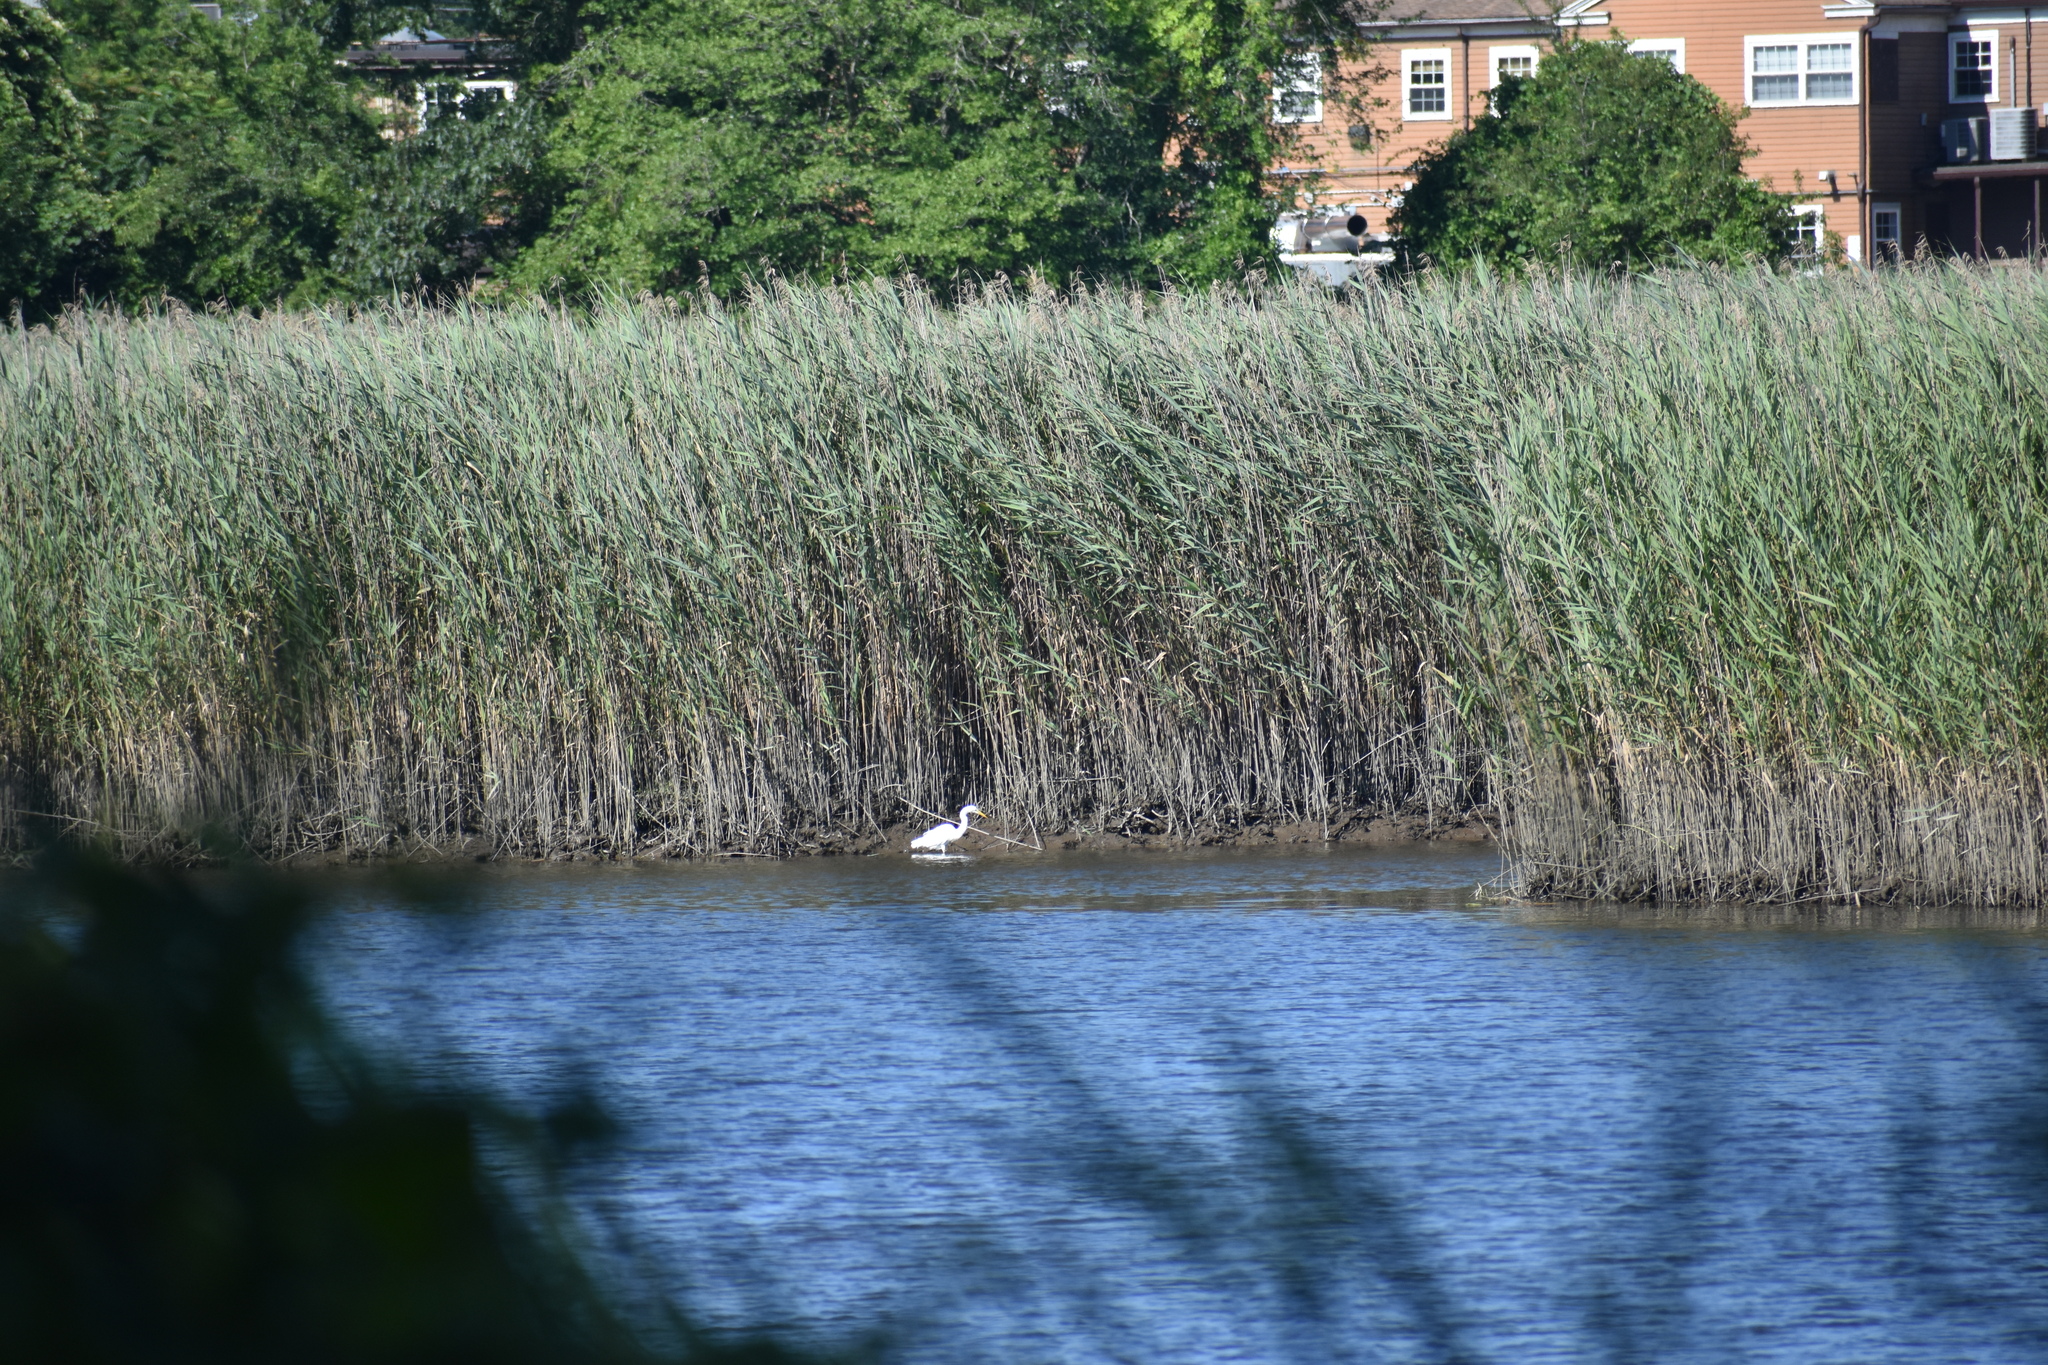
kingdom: Animalia
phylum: Chordata
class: Aves
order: Pelecaniformes
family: Ardeidae
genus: Ardea
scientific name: Ardea alba
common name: Great egret
